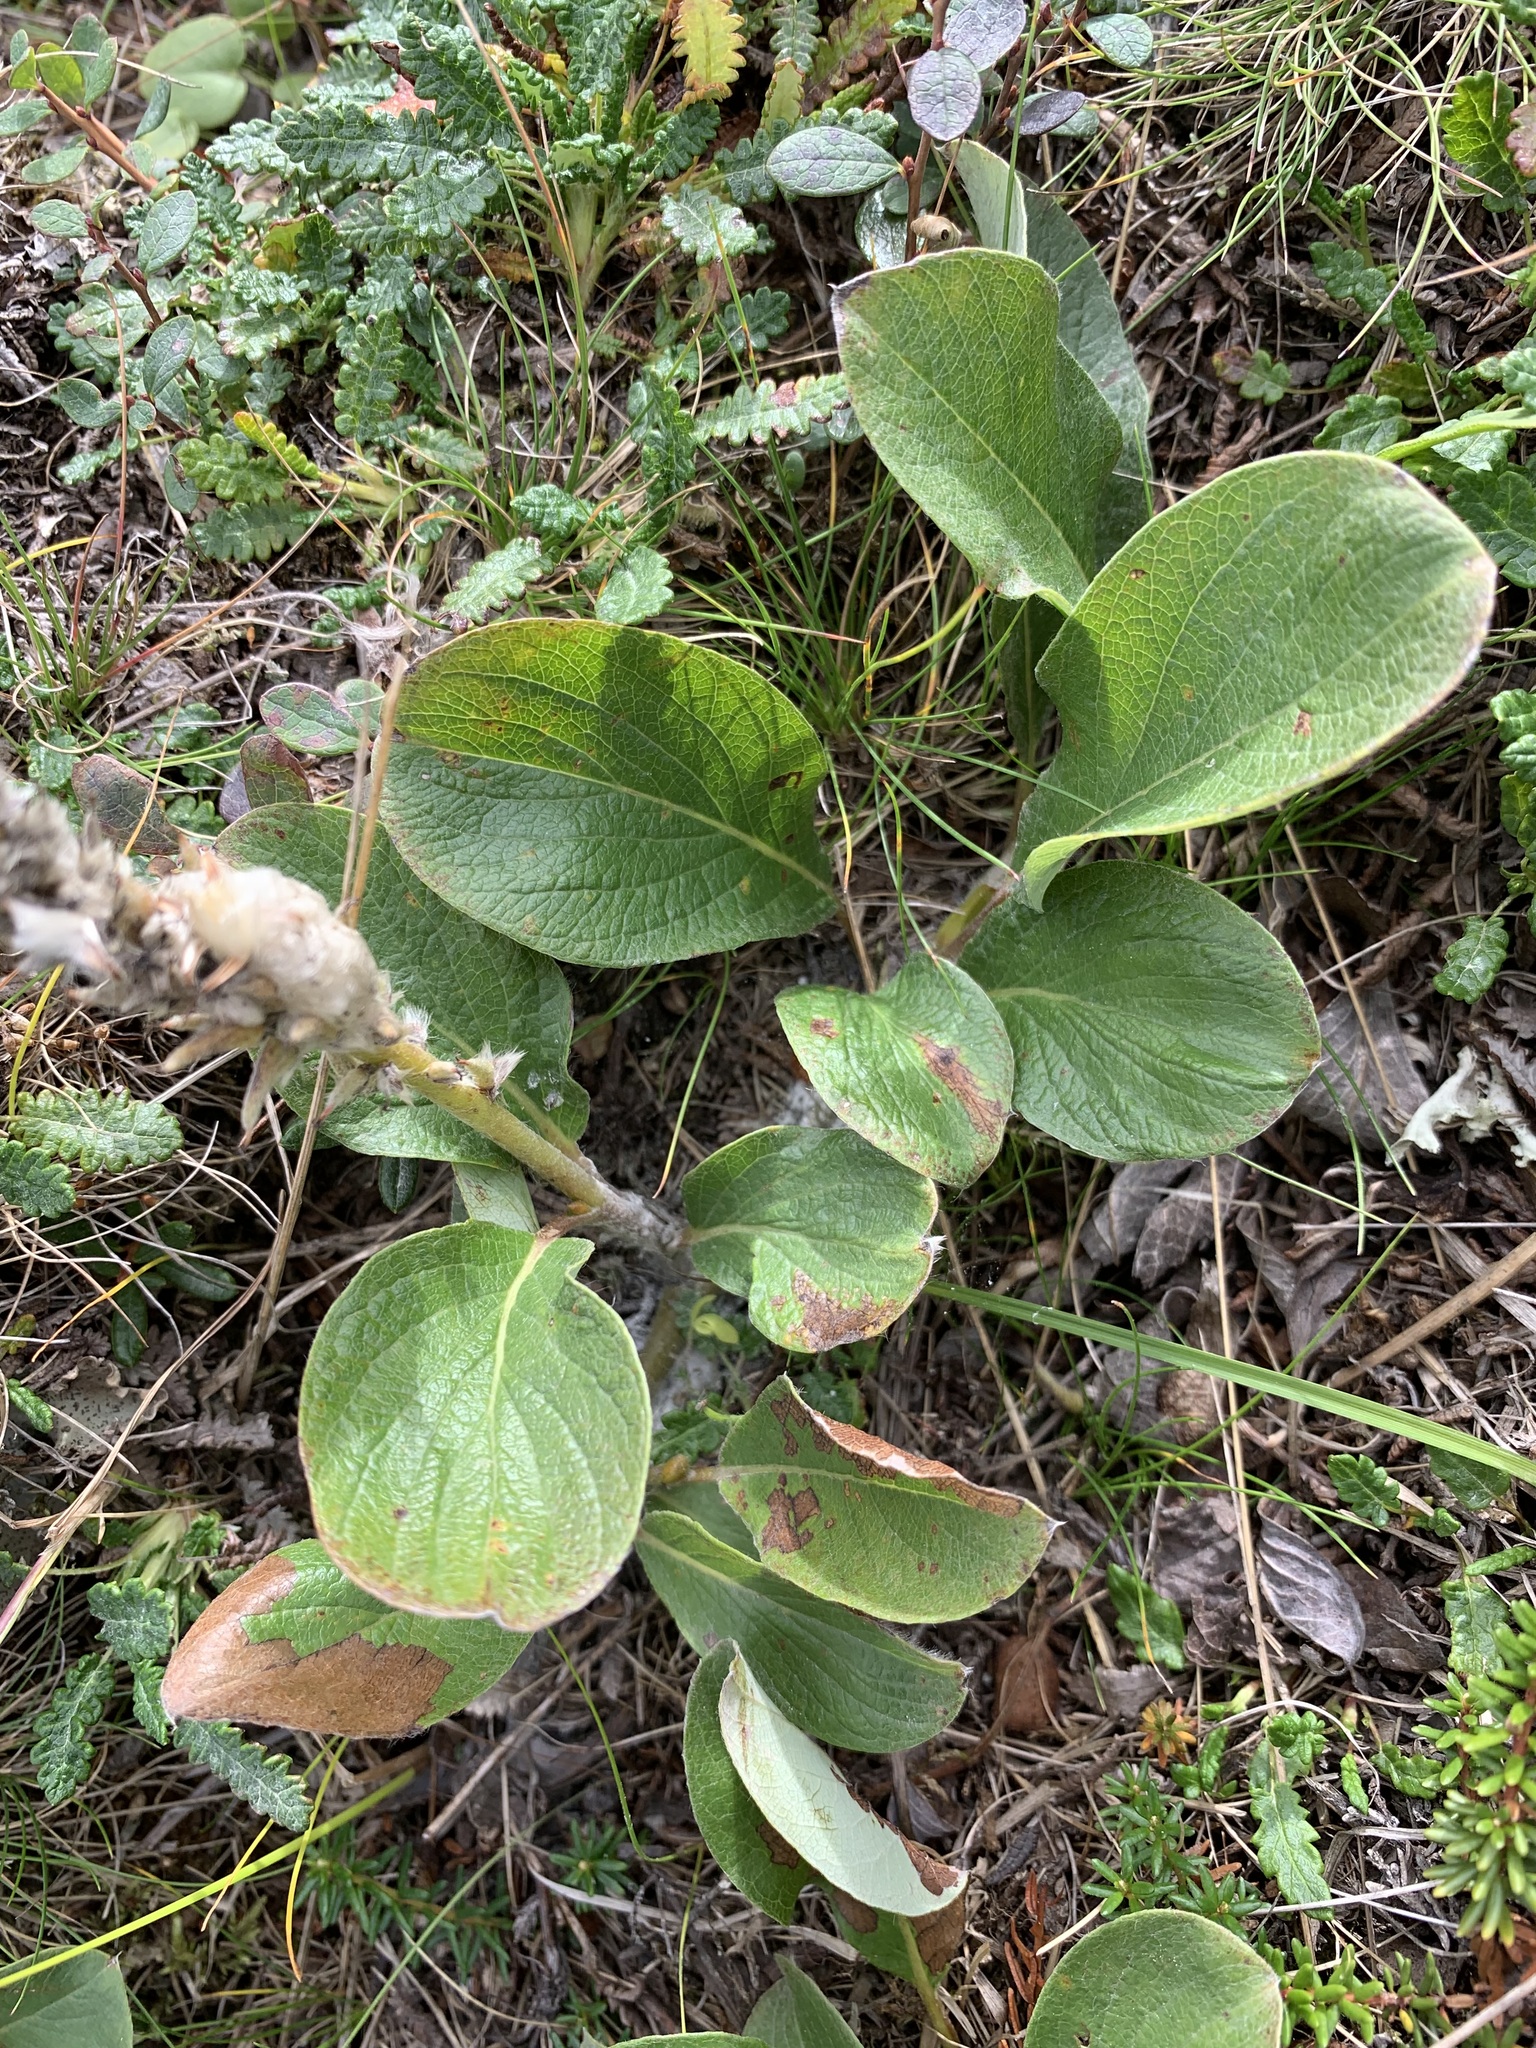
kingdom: Plantae
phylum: Tracheophyta
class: Magnoliopsida
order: Malpighiales
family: Salicaceae
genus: Salix
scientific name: Salix arctica
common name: Arctic willow
